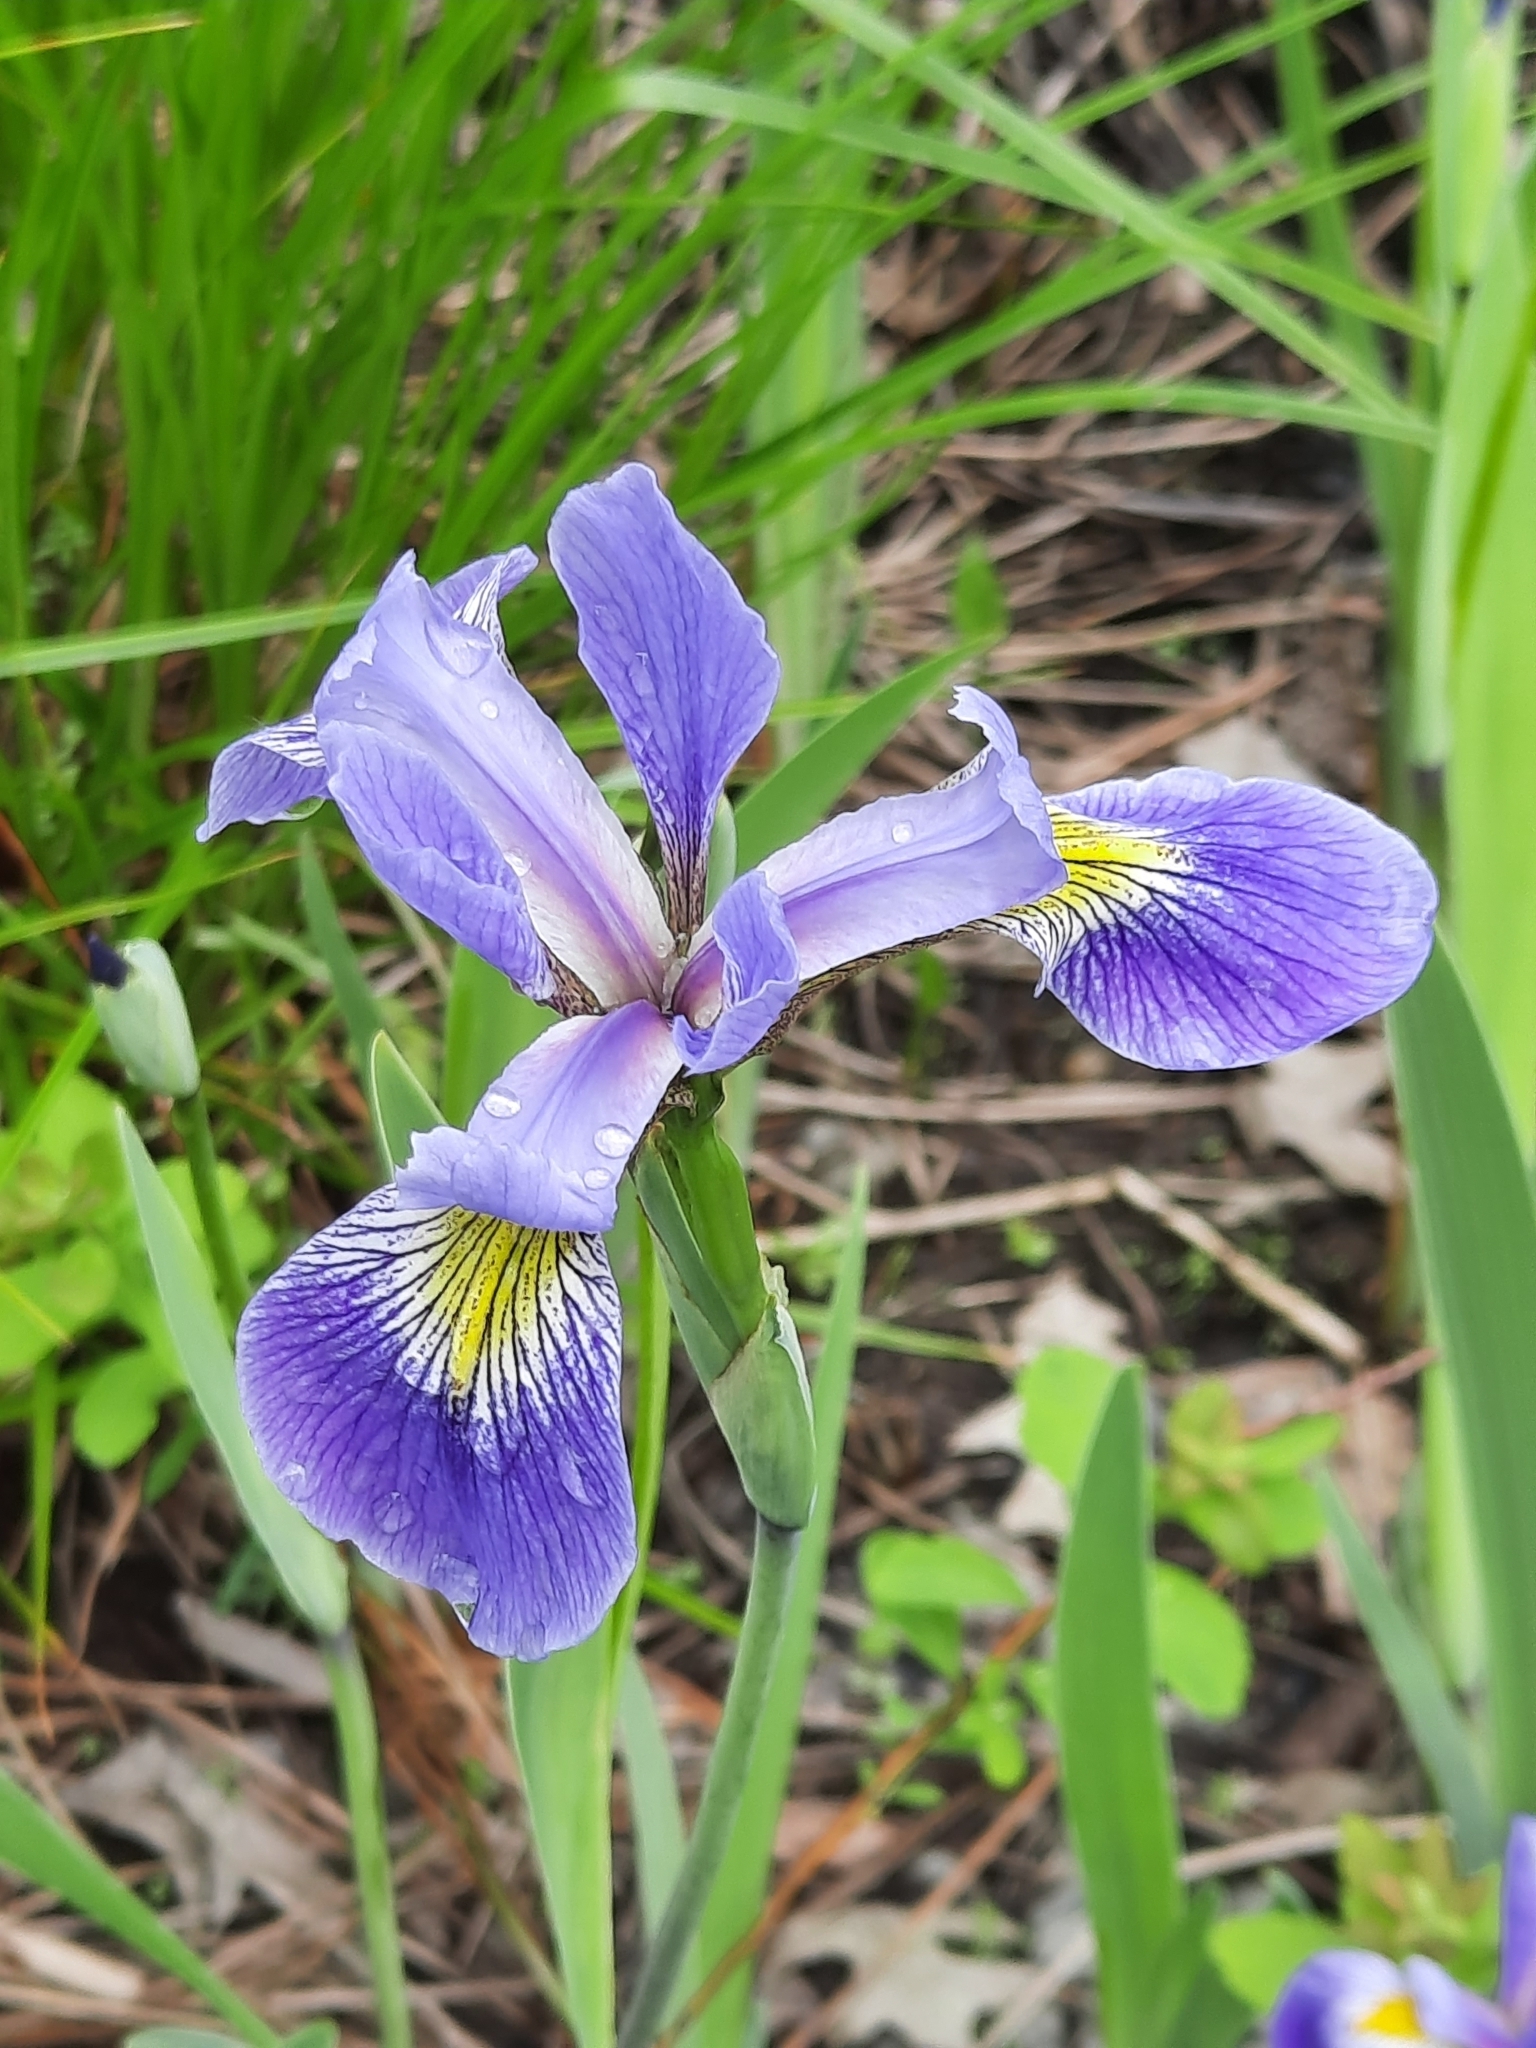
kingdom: Plantae
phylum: Tracheophyta
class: Liliopsida
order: Asparagales
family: Iridaceae
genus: Iris
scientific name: Iris versicolor
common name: Purple iris
